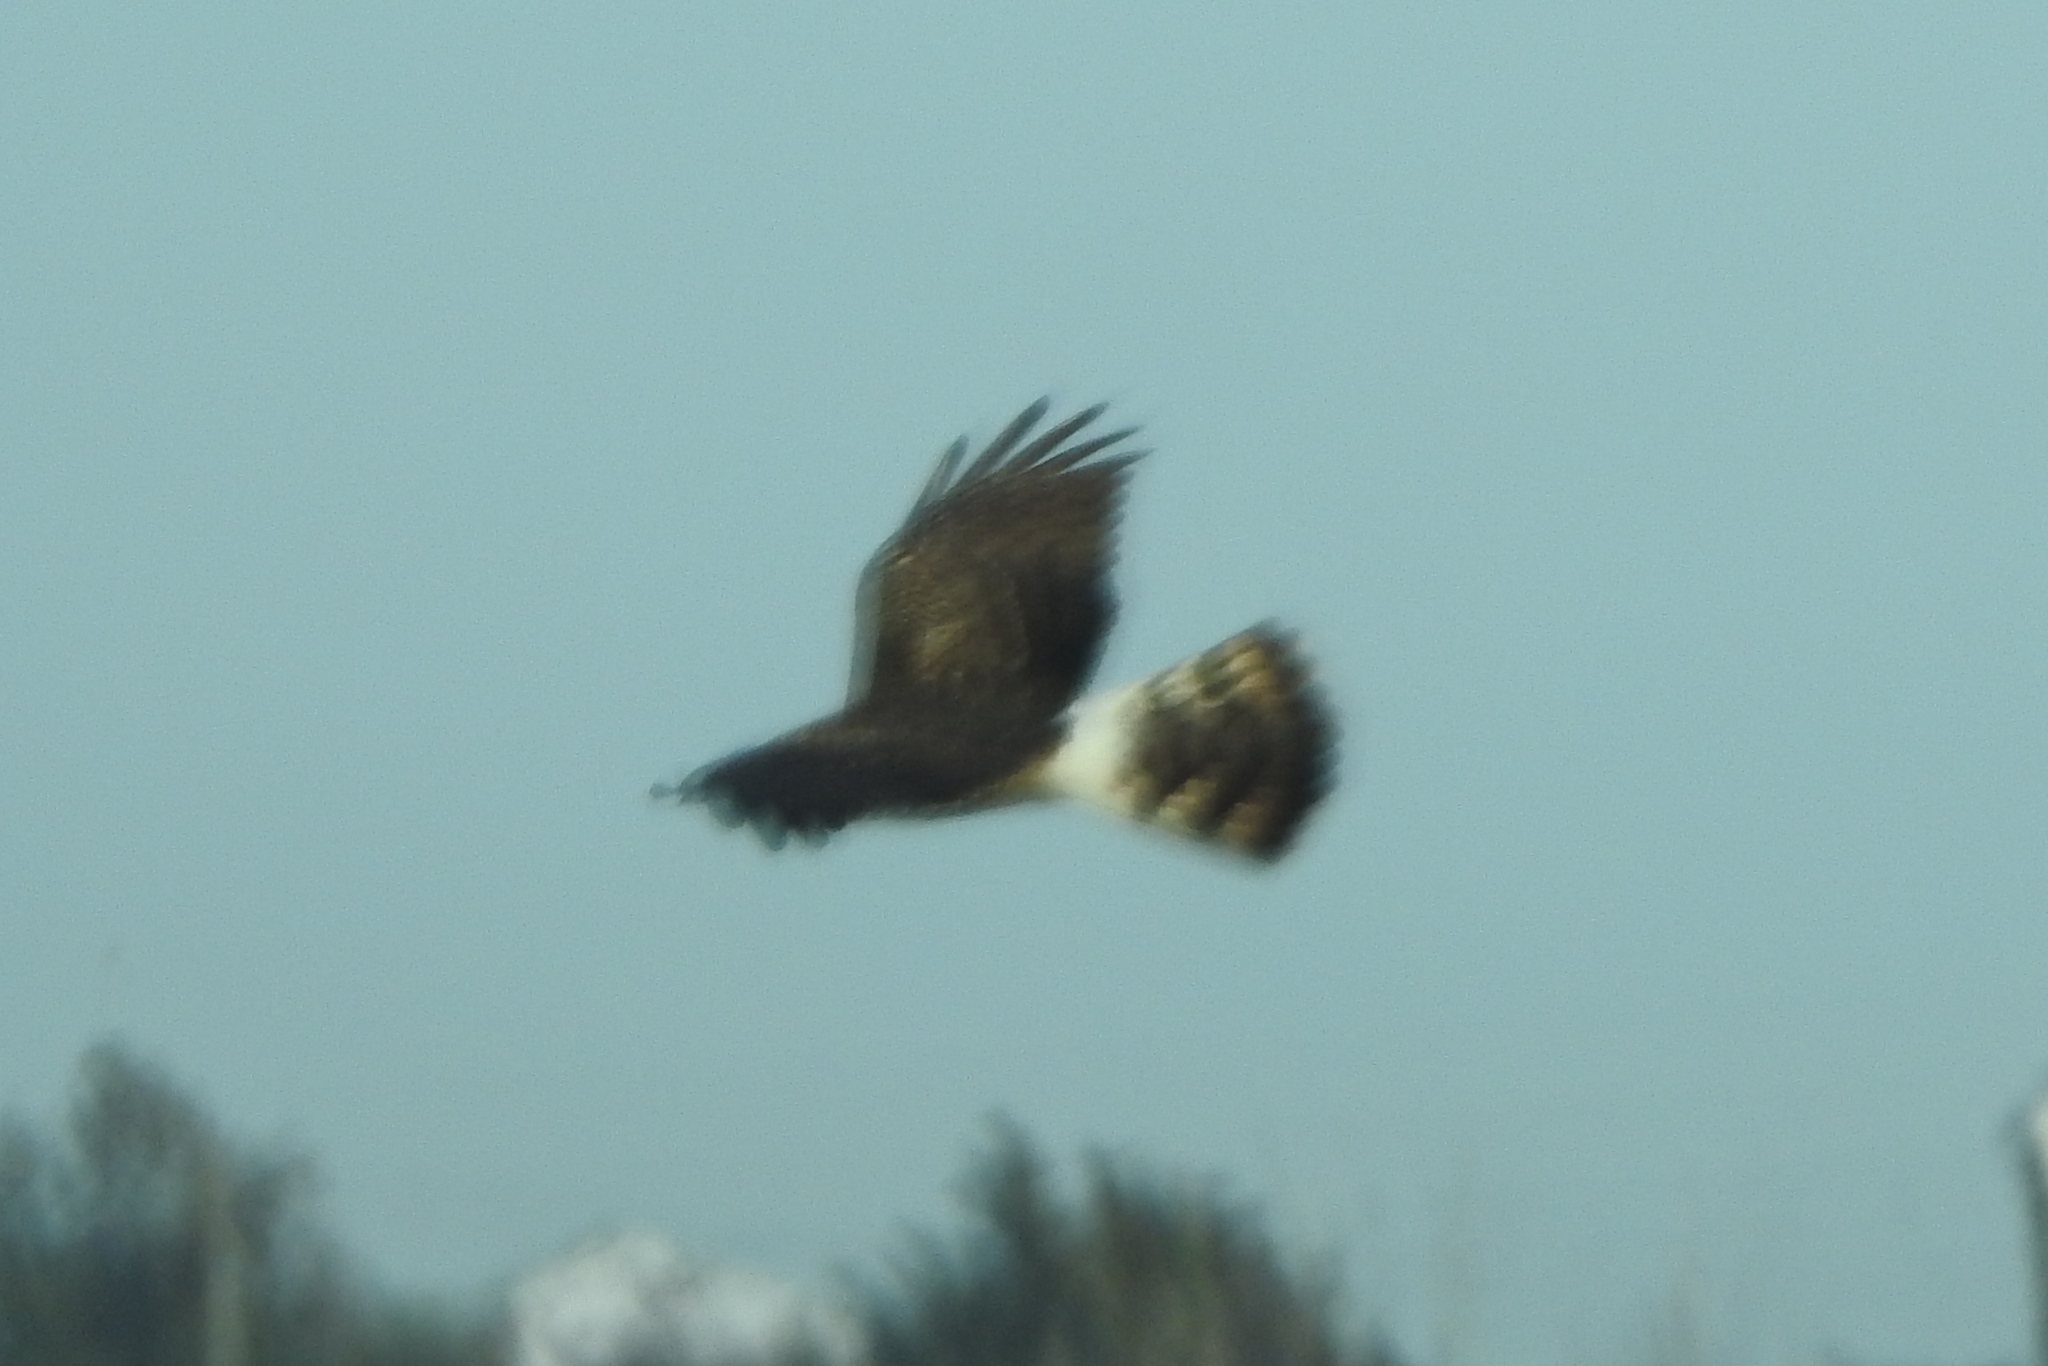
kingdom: Animalia
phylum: Chordata
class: Aves
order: Accipitriformes
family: Accipitridae
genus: Circus
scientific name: Circus cyaneus
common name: Hen harrier
